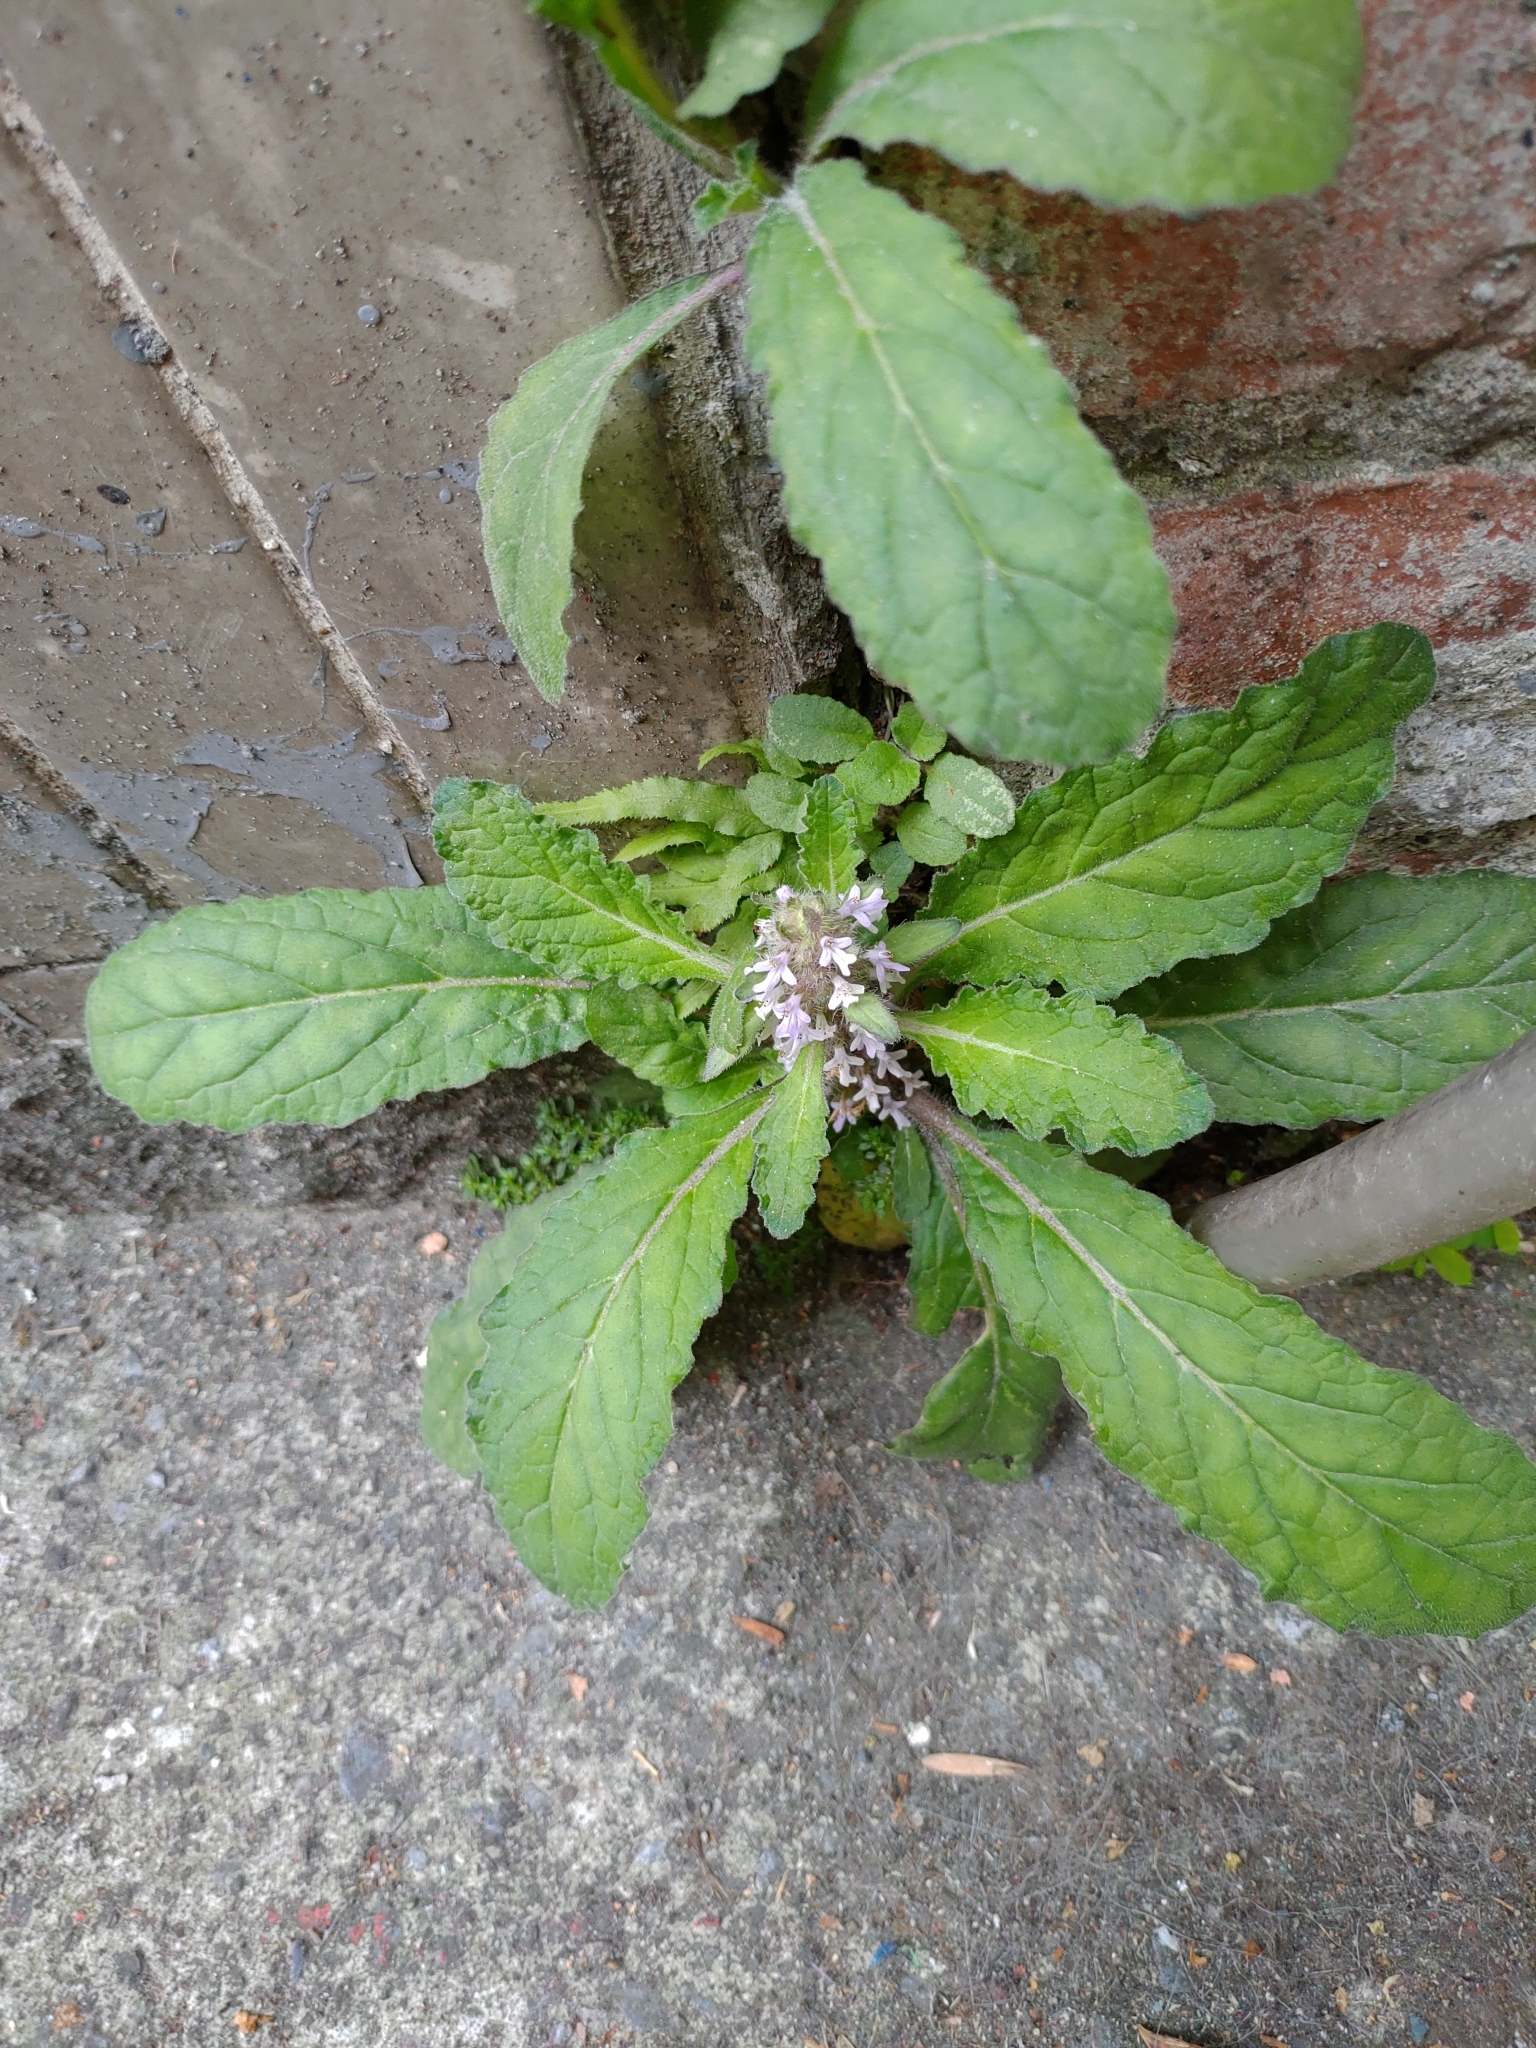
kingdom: Plantae
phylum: Tracheophyta
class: Magnoliopsida
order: Lamiales
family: Lamiaceae
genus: Ajuga
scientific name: Ajuga taiwanensis
